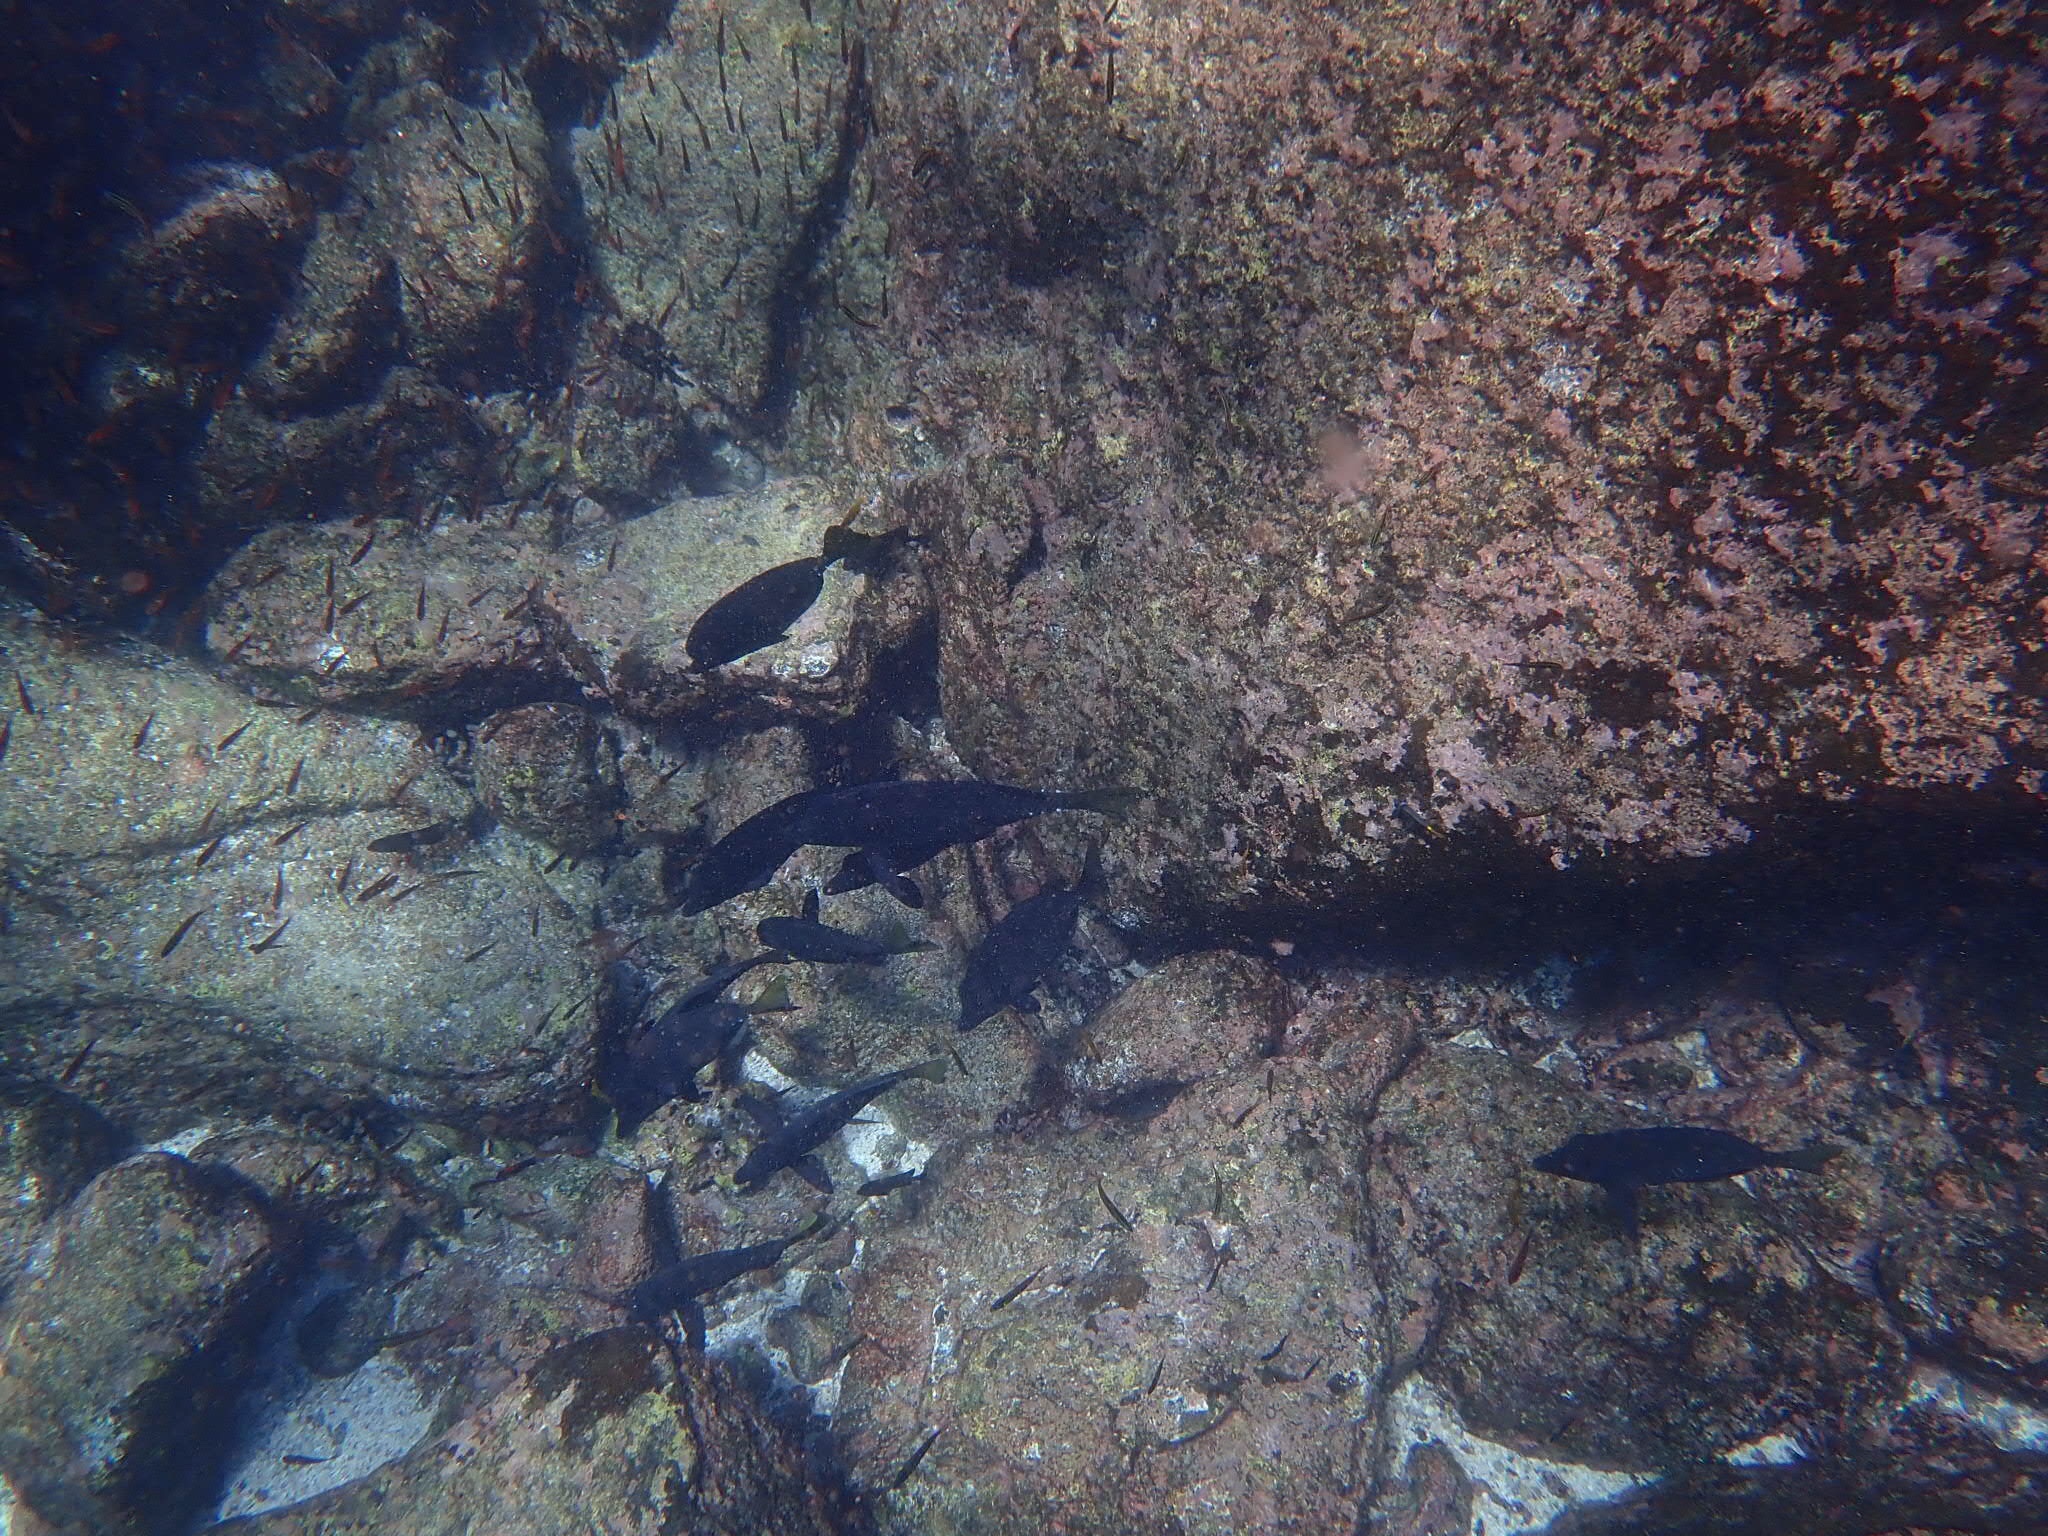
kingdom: Animalia
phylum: Chordata
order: Perciformes
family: Acanthuridae
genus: Prionurus
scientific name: Prionurus laticlavius
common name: Razor surgeonfish
